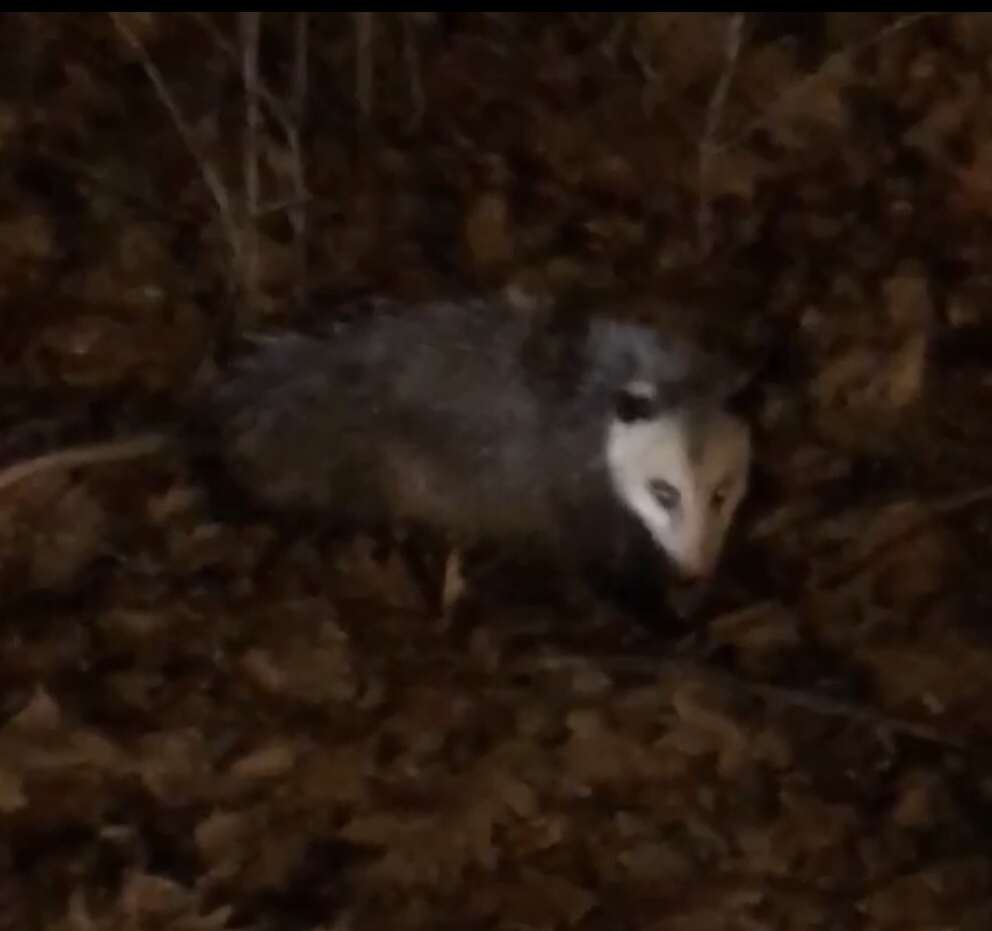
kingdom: Animalia
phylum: Chordata
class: Mammalia
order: Didelphimorphia
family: Didelphidae
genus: Didelphis
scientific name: Didelphis virginiana
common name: Virginia opossum
